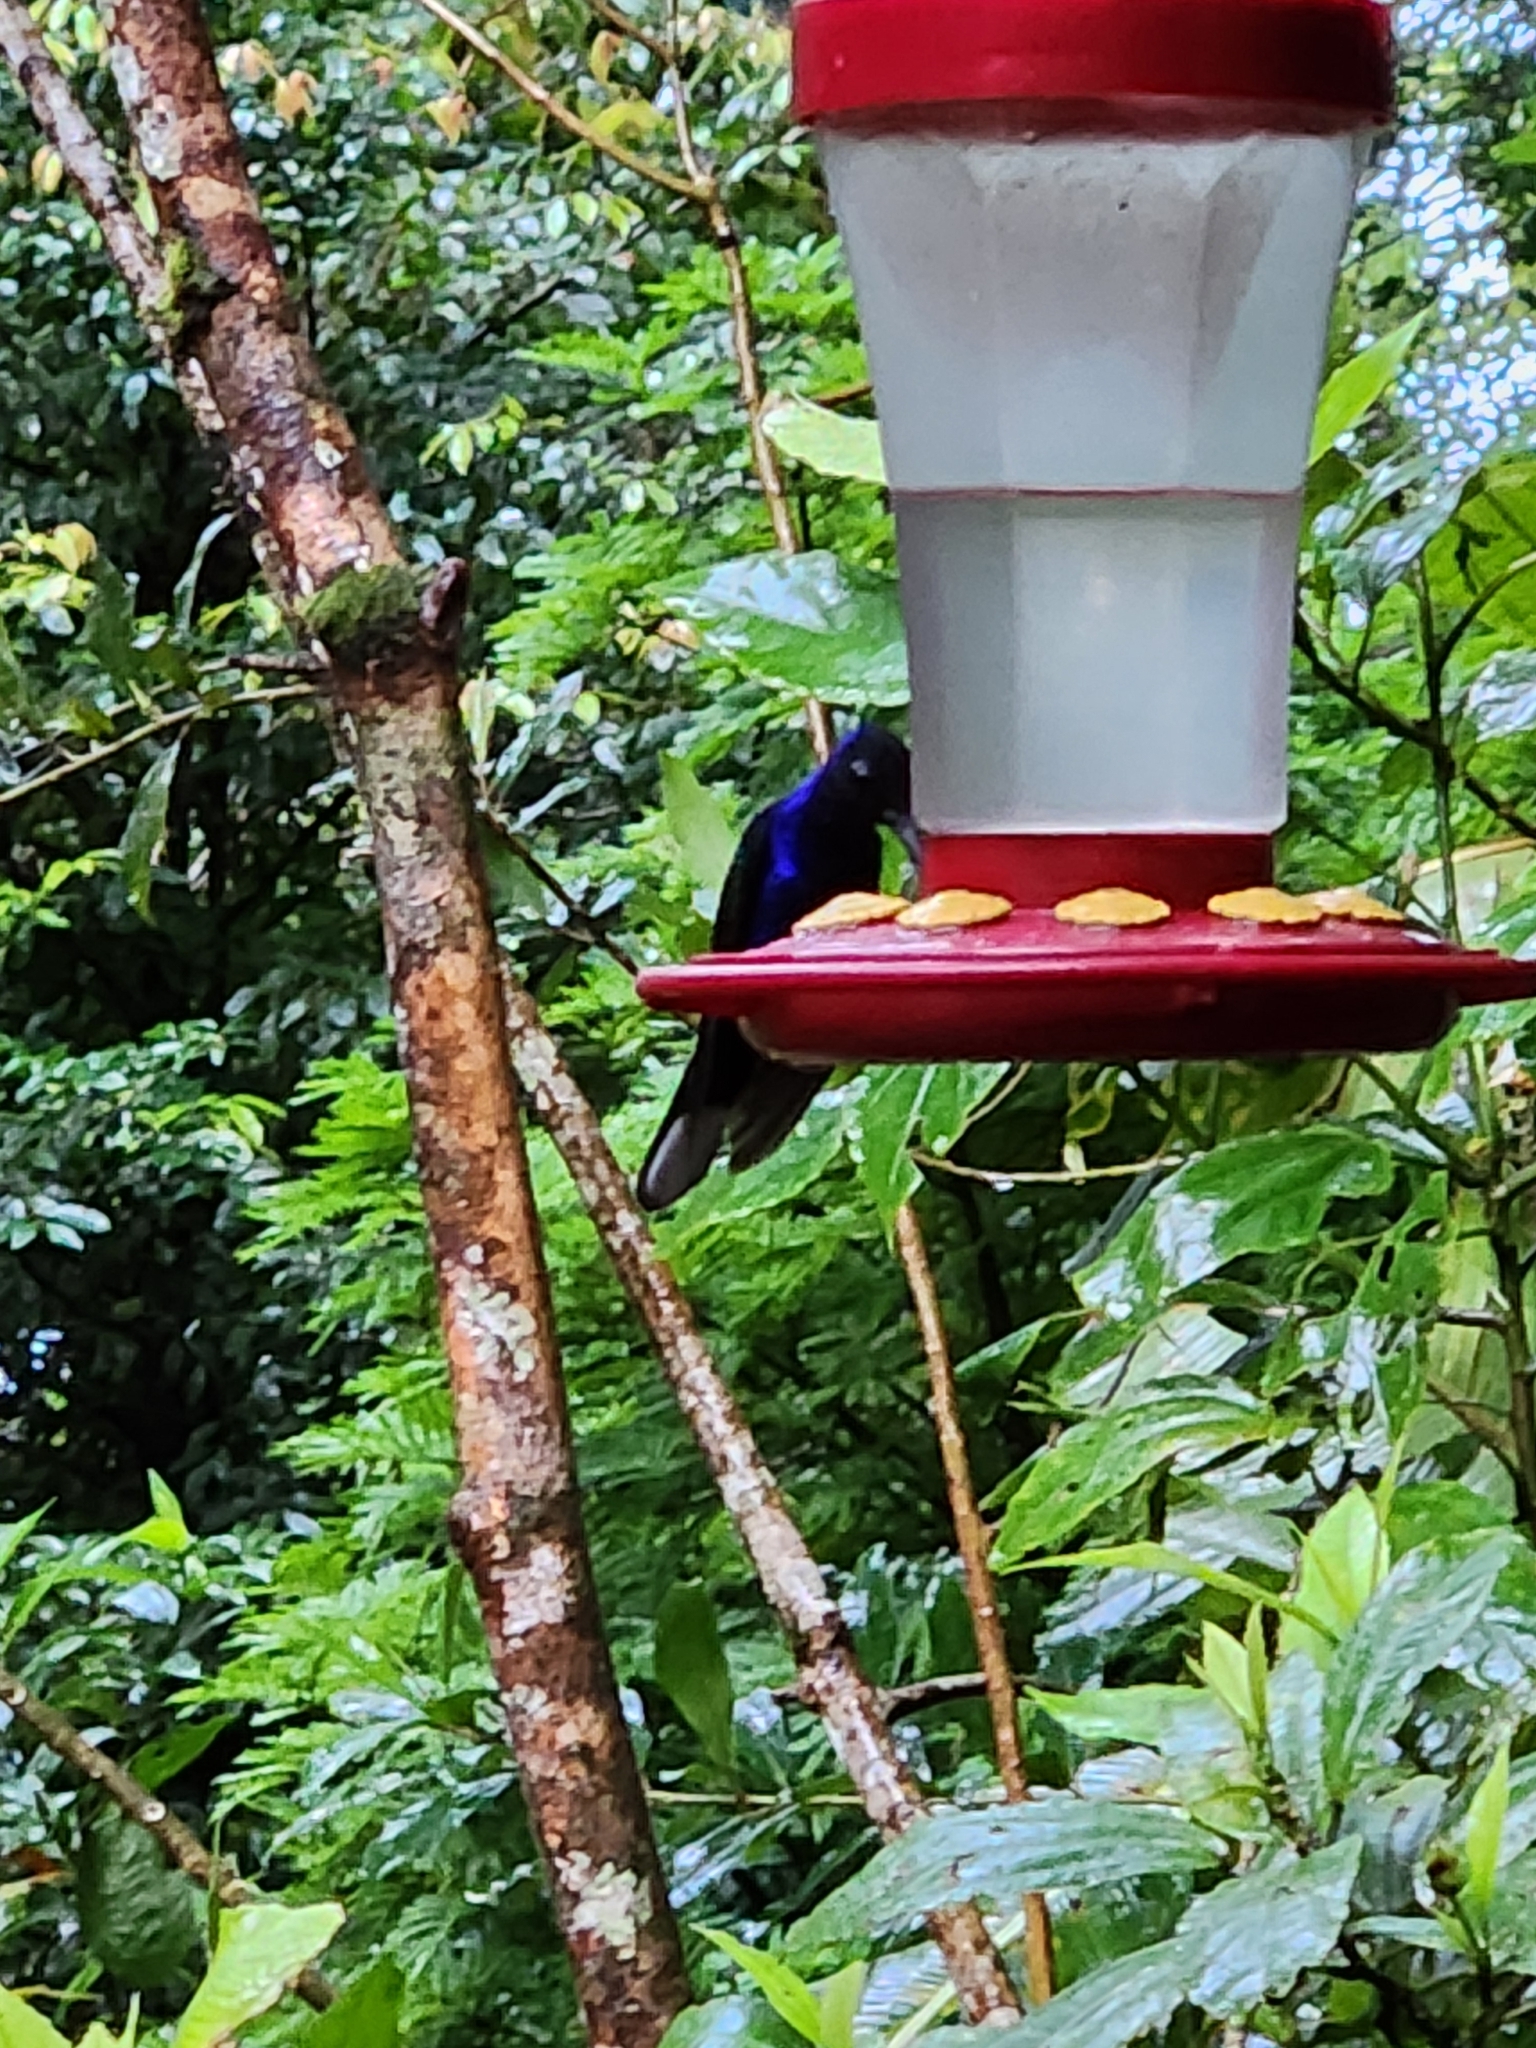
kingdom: Animalia
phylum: Chordata
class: Aves
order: Apodiformes
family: Trochilidae
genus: Campylopterus
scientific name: Campylopterus hemileucurus
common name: Violet sabrewing
